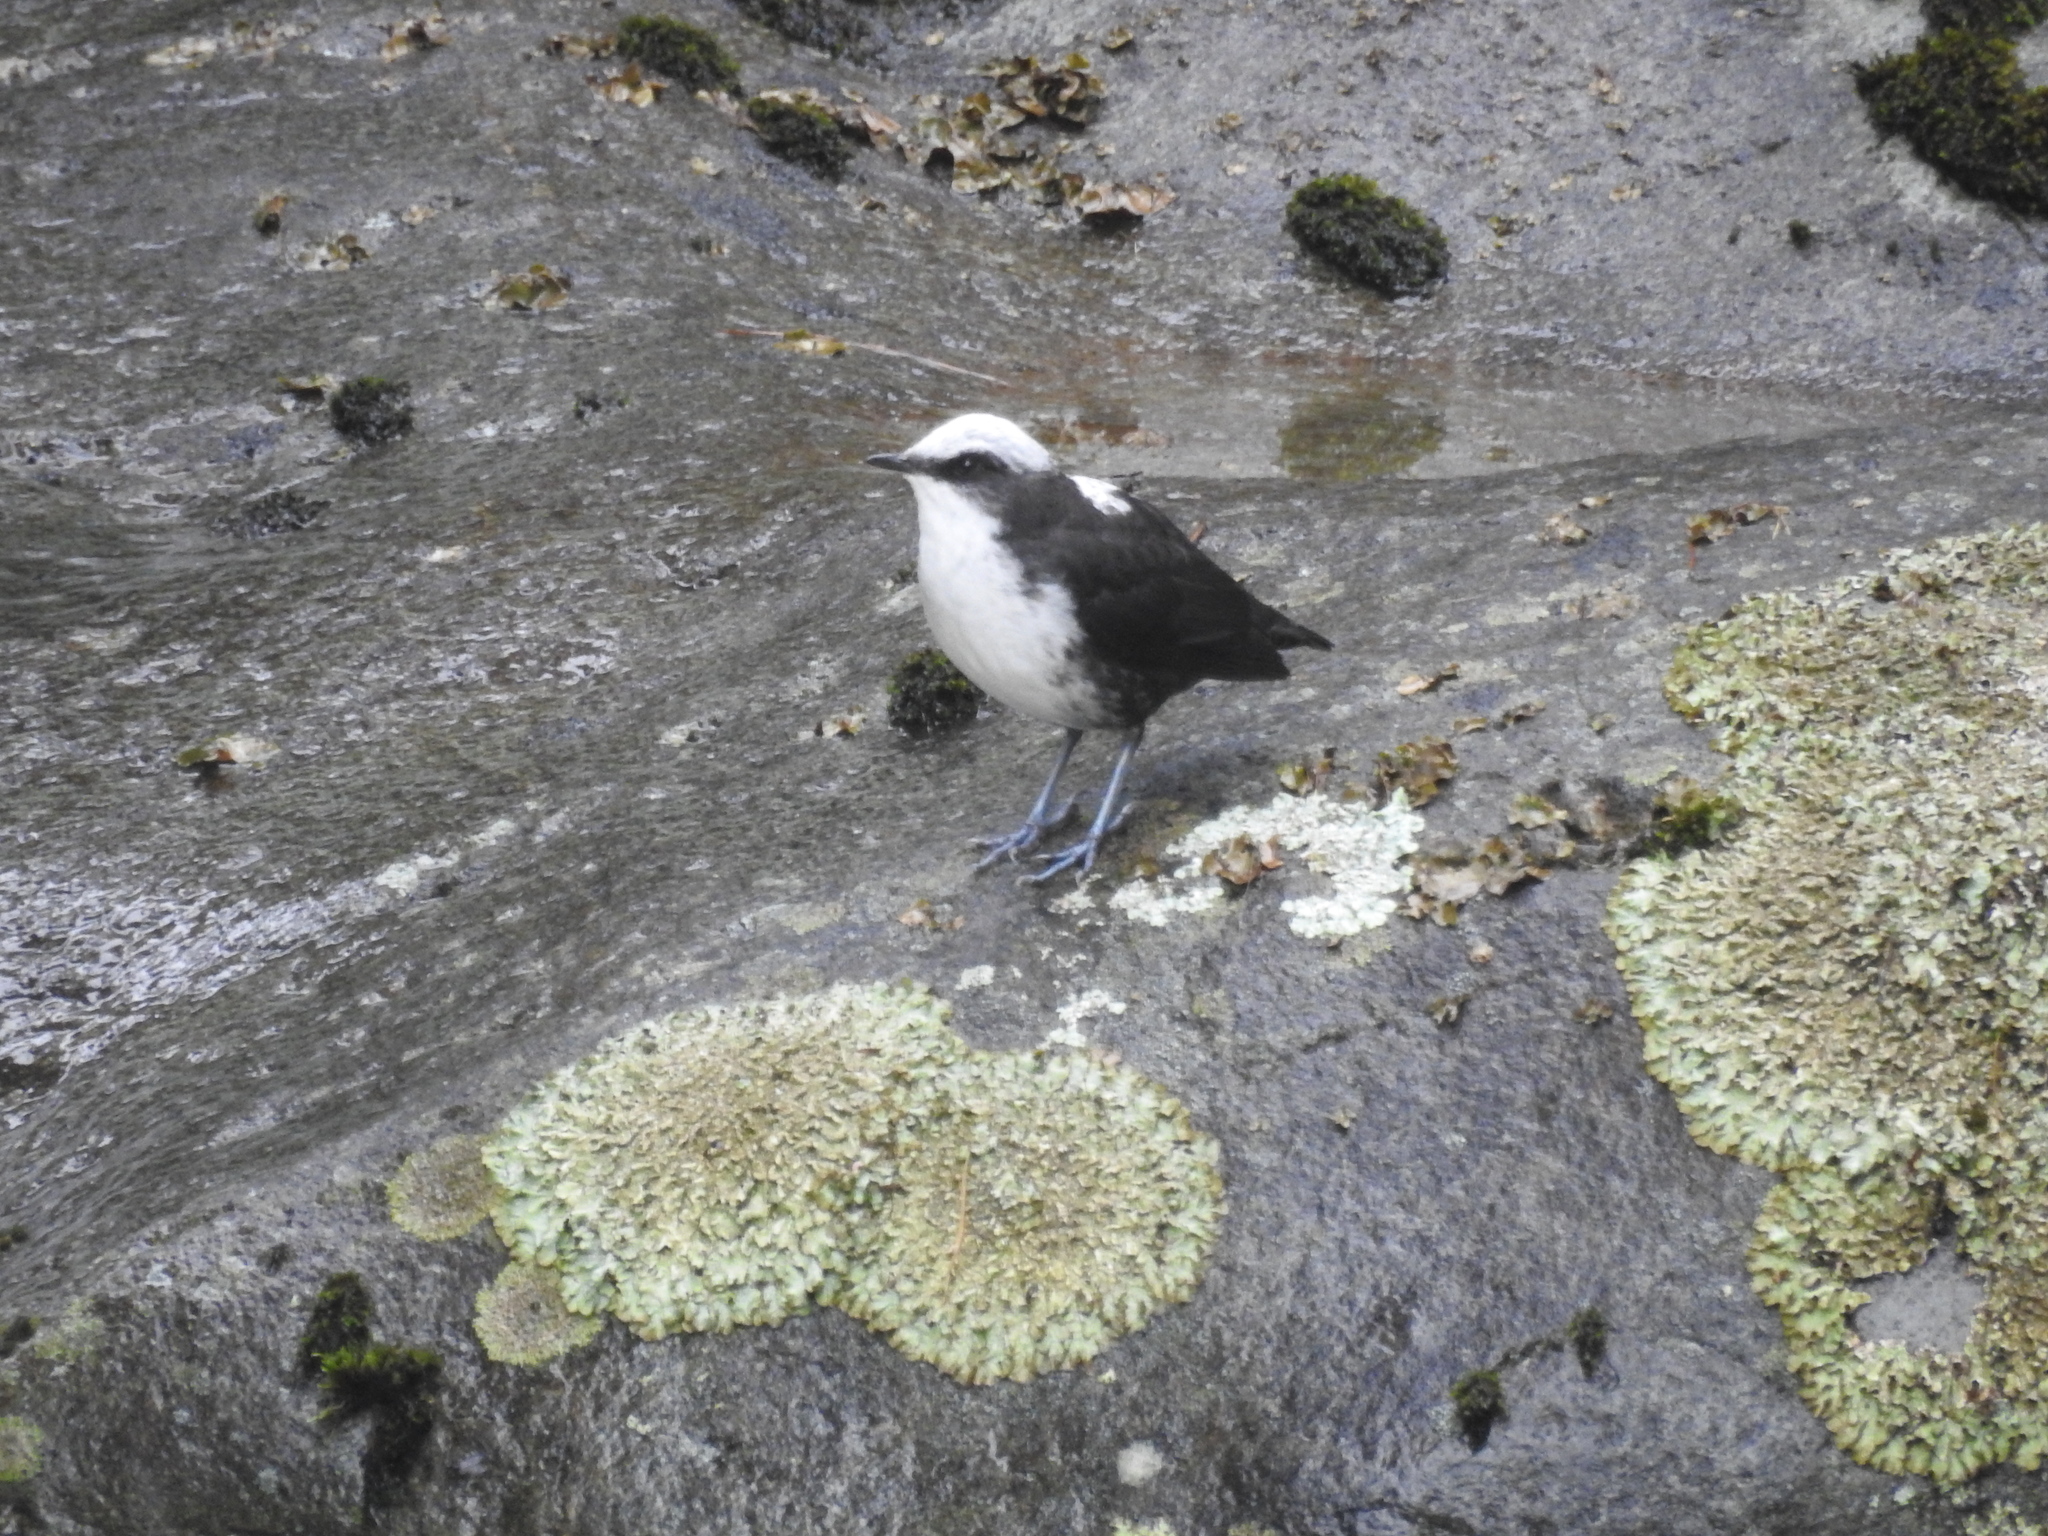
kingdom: Animalia
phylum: Chordata
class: Aves
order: Passeriformes
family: Cinclidae
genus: Cinclus
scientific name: Cinclus leucocephalus
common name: White-capped dipper
